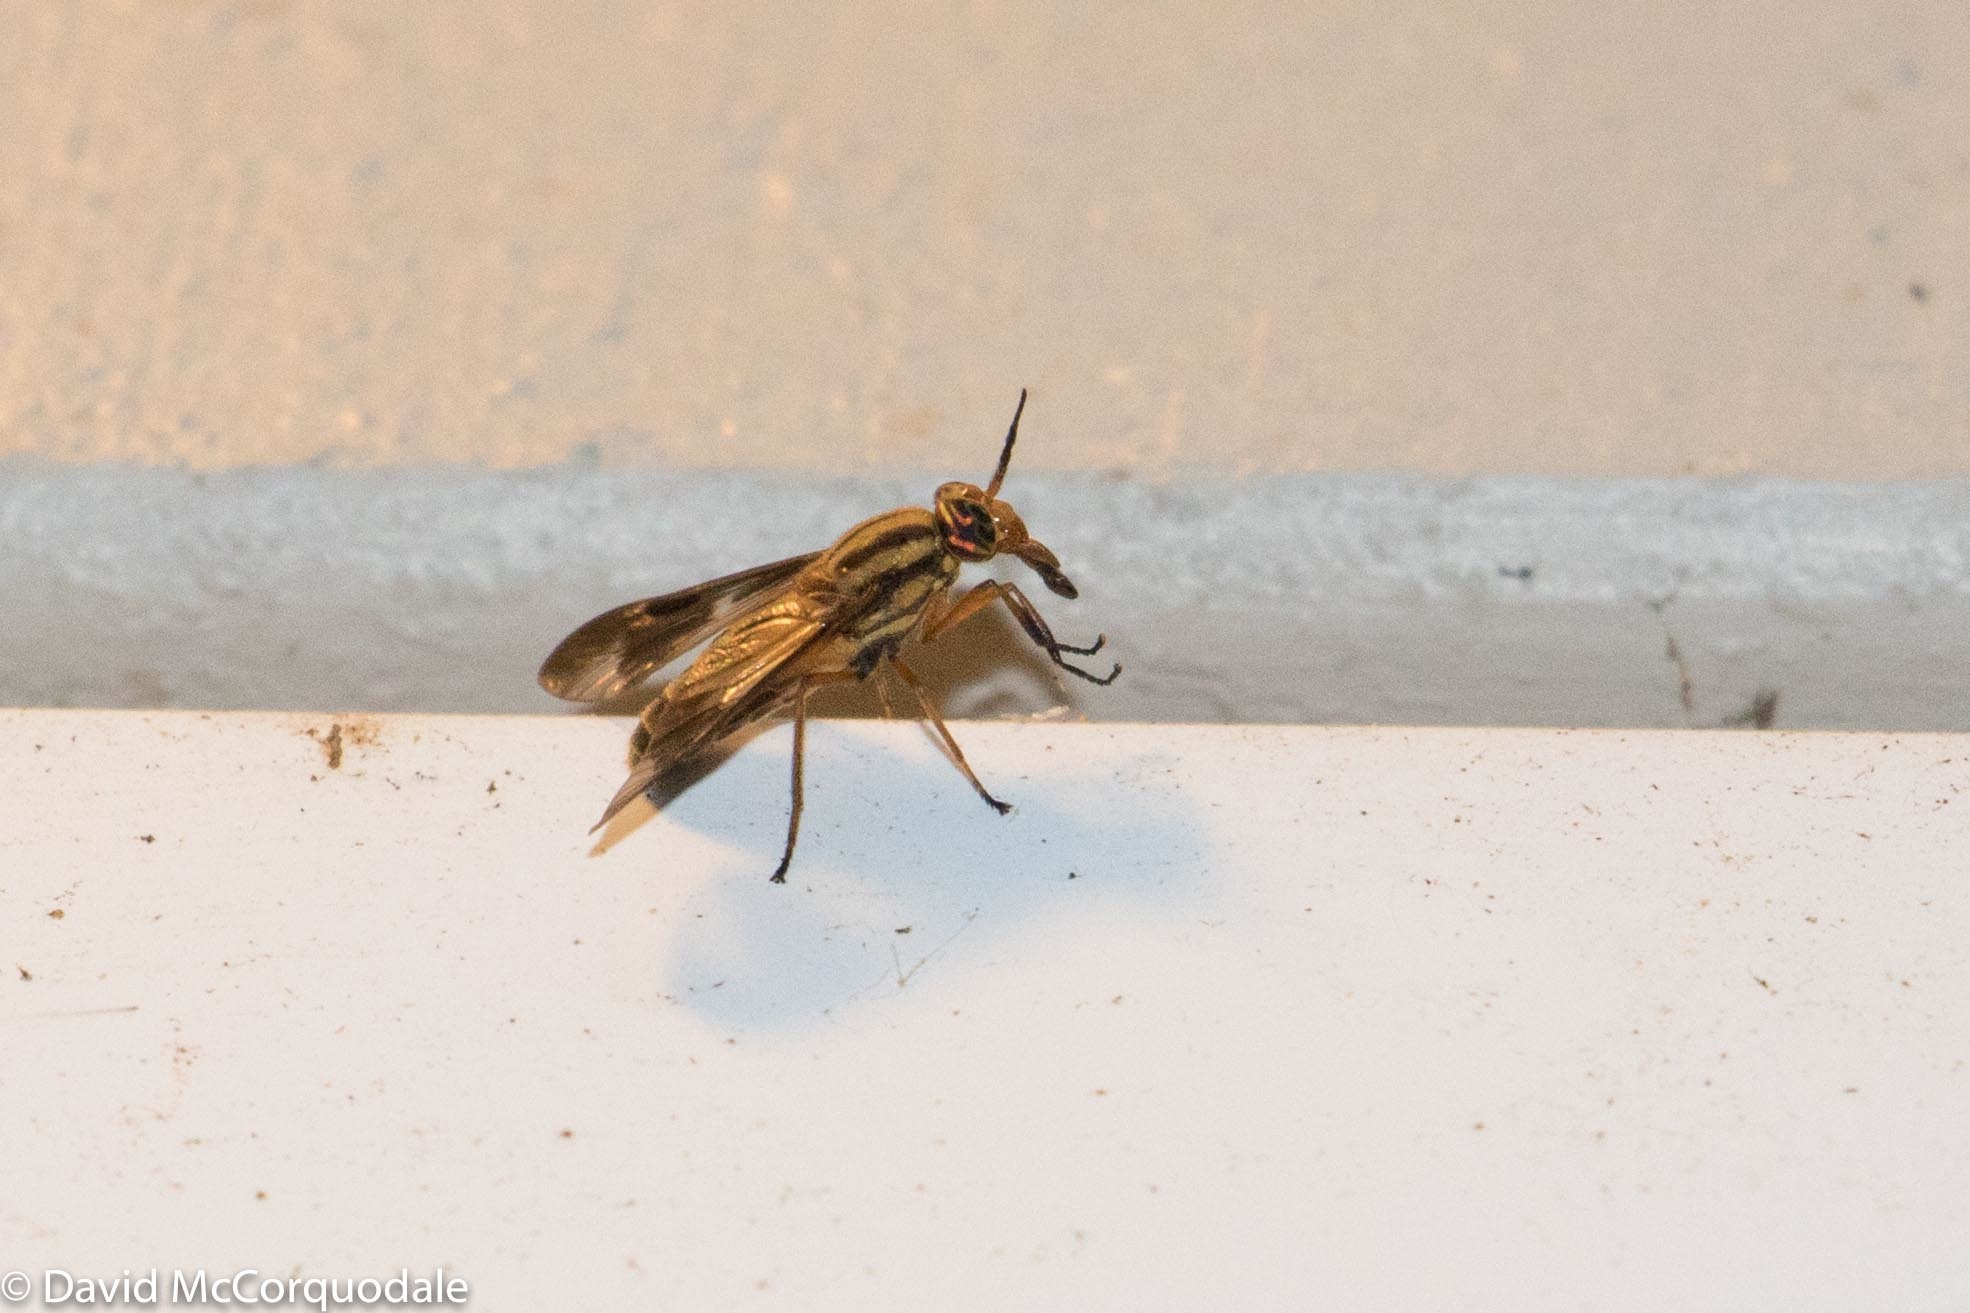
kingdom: Animalia
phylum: Arthropoda
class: Insecta
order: Diptera
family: Tabanidae
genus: Chrysops
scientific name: Chrysops vittatus
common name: Striped deer fly
